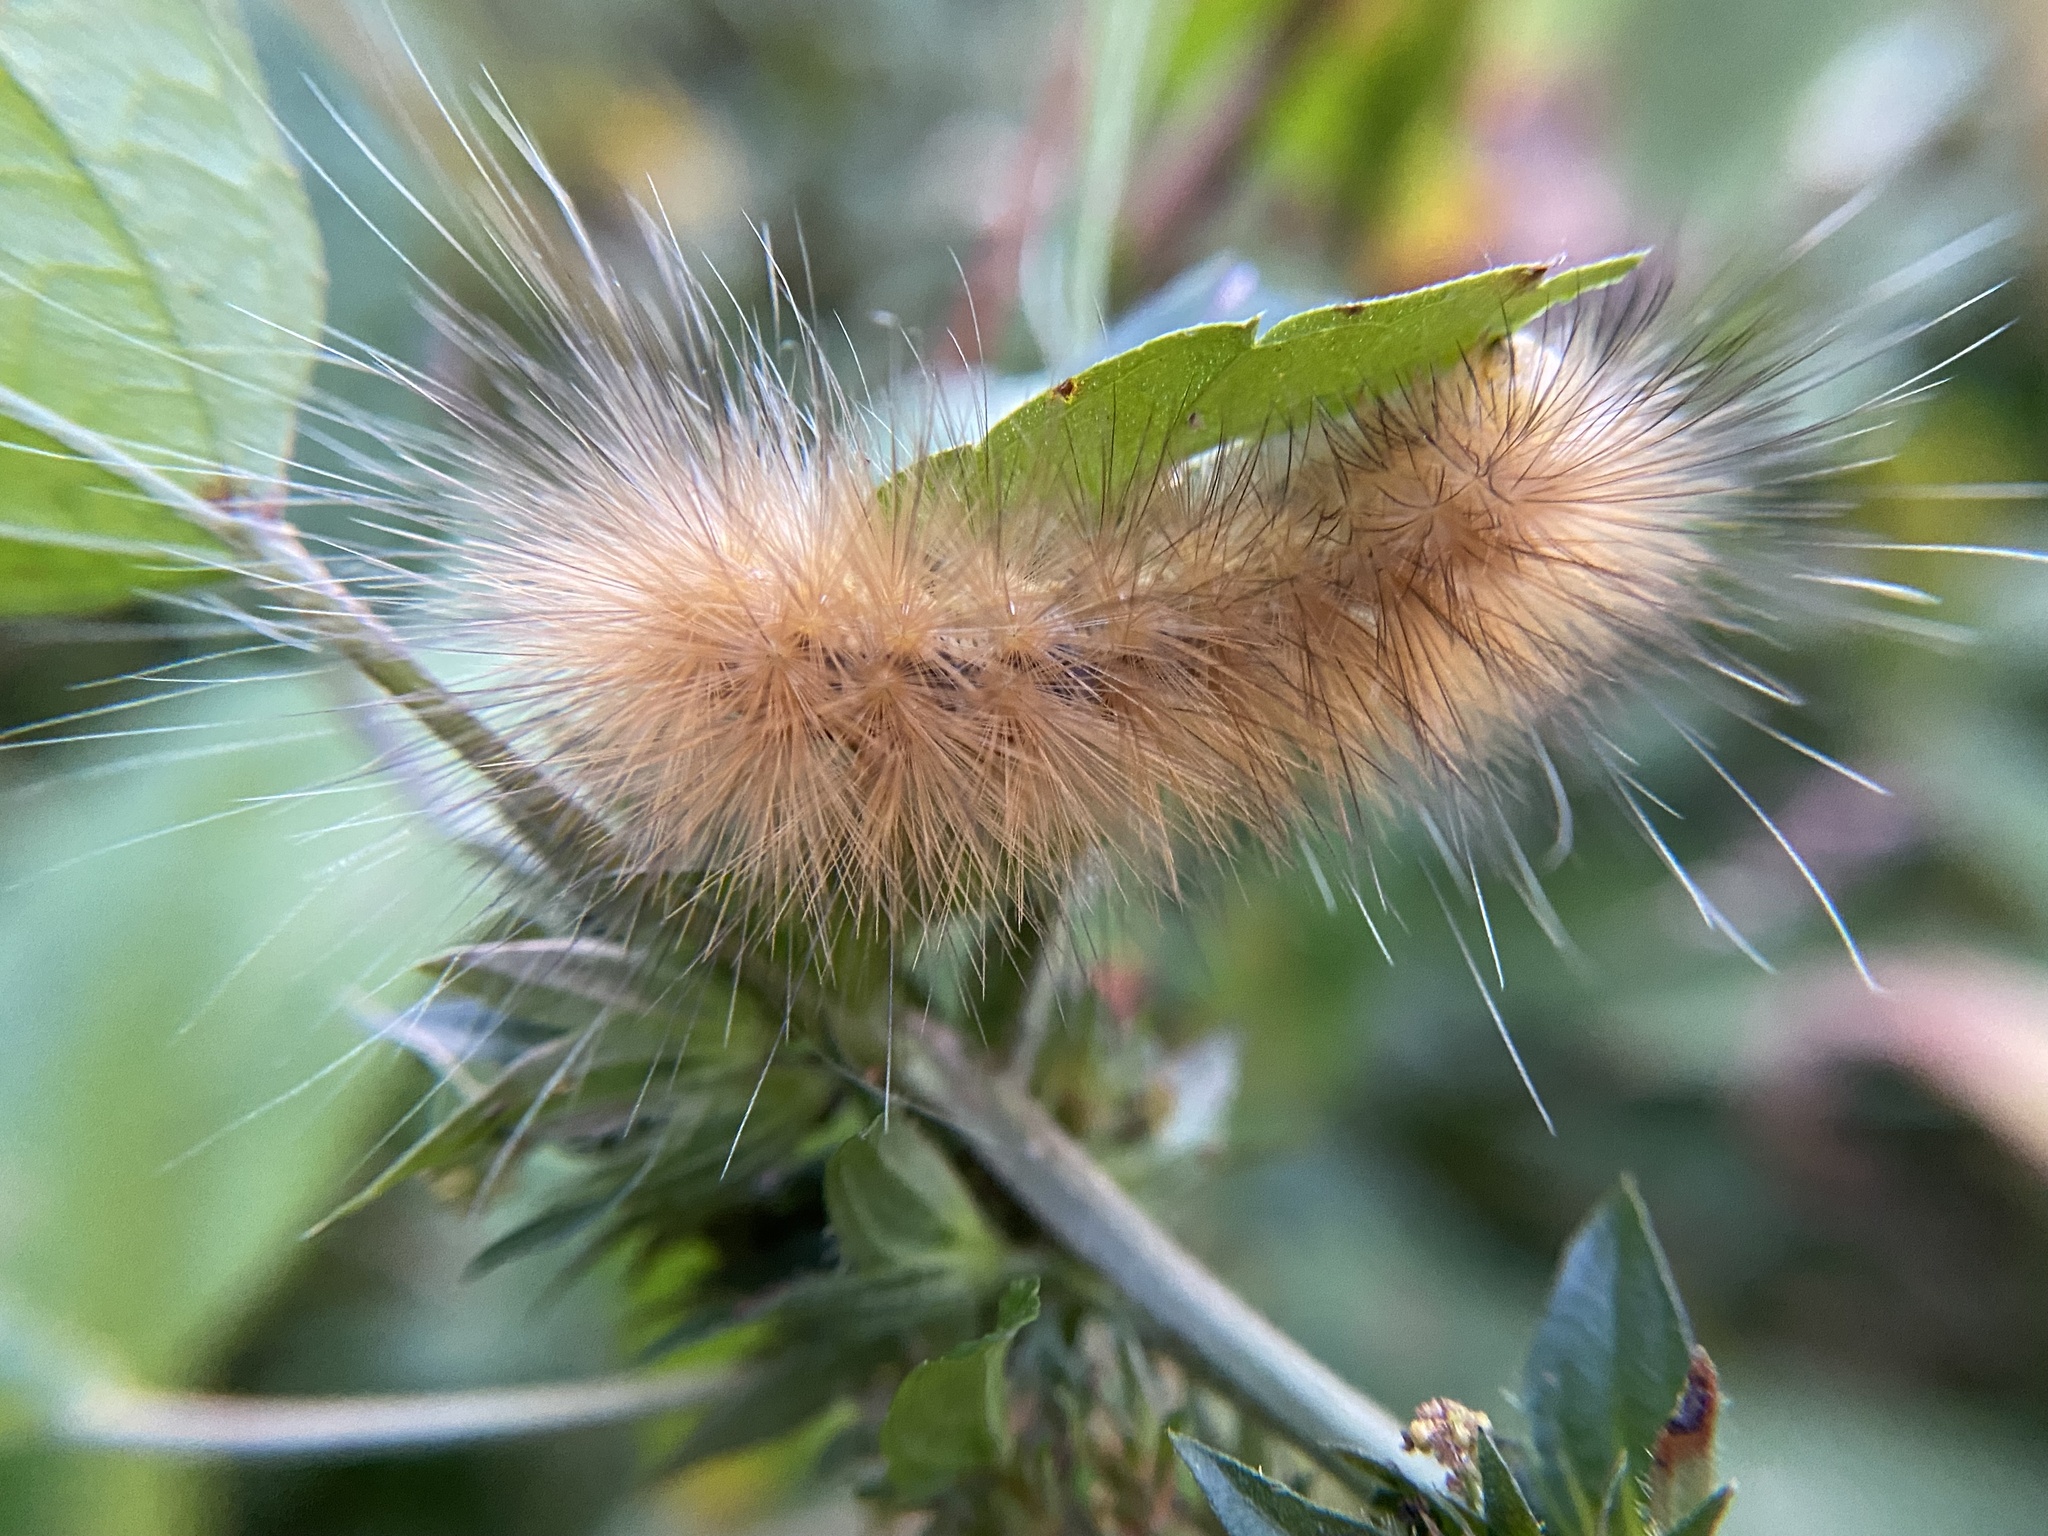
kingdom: Animalia
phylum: Arthropoda
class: Insecta
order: Lepidoptera
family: Erebidae
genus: Spilosoma
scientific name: Spilosoma virginica
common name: Virginia tiger moth
